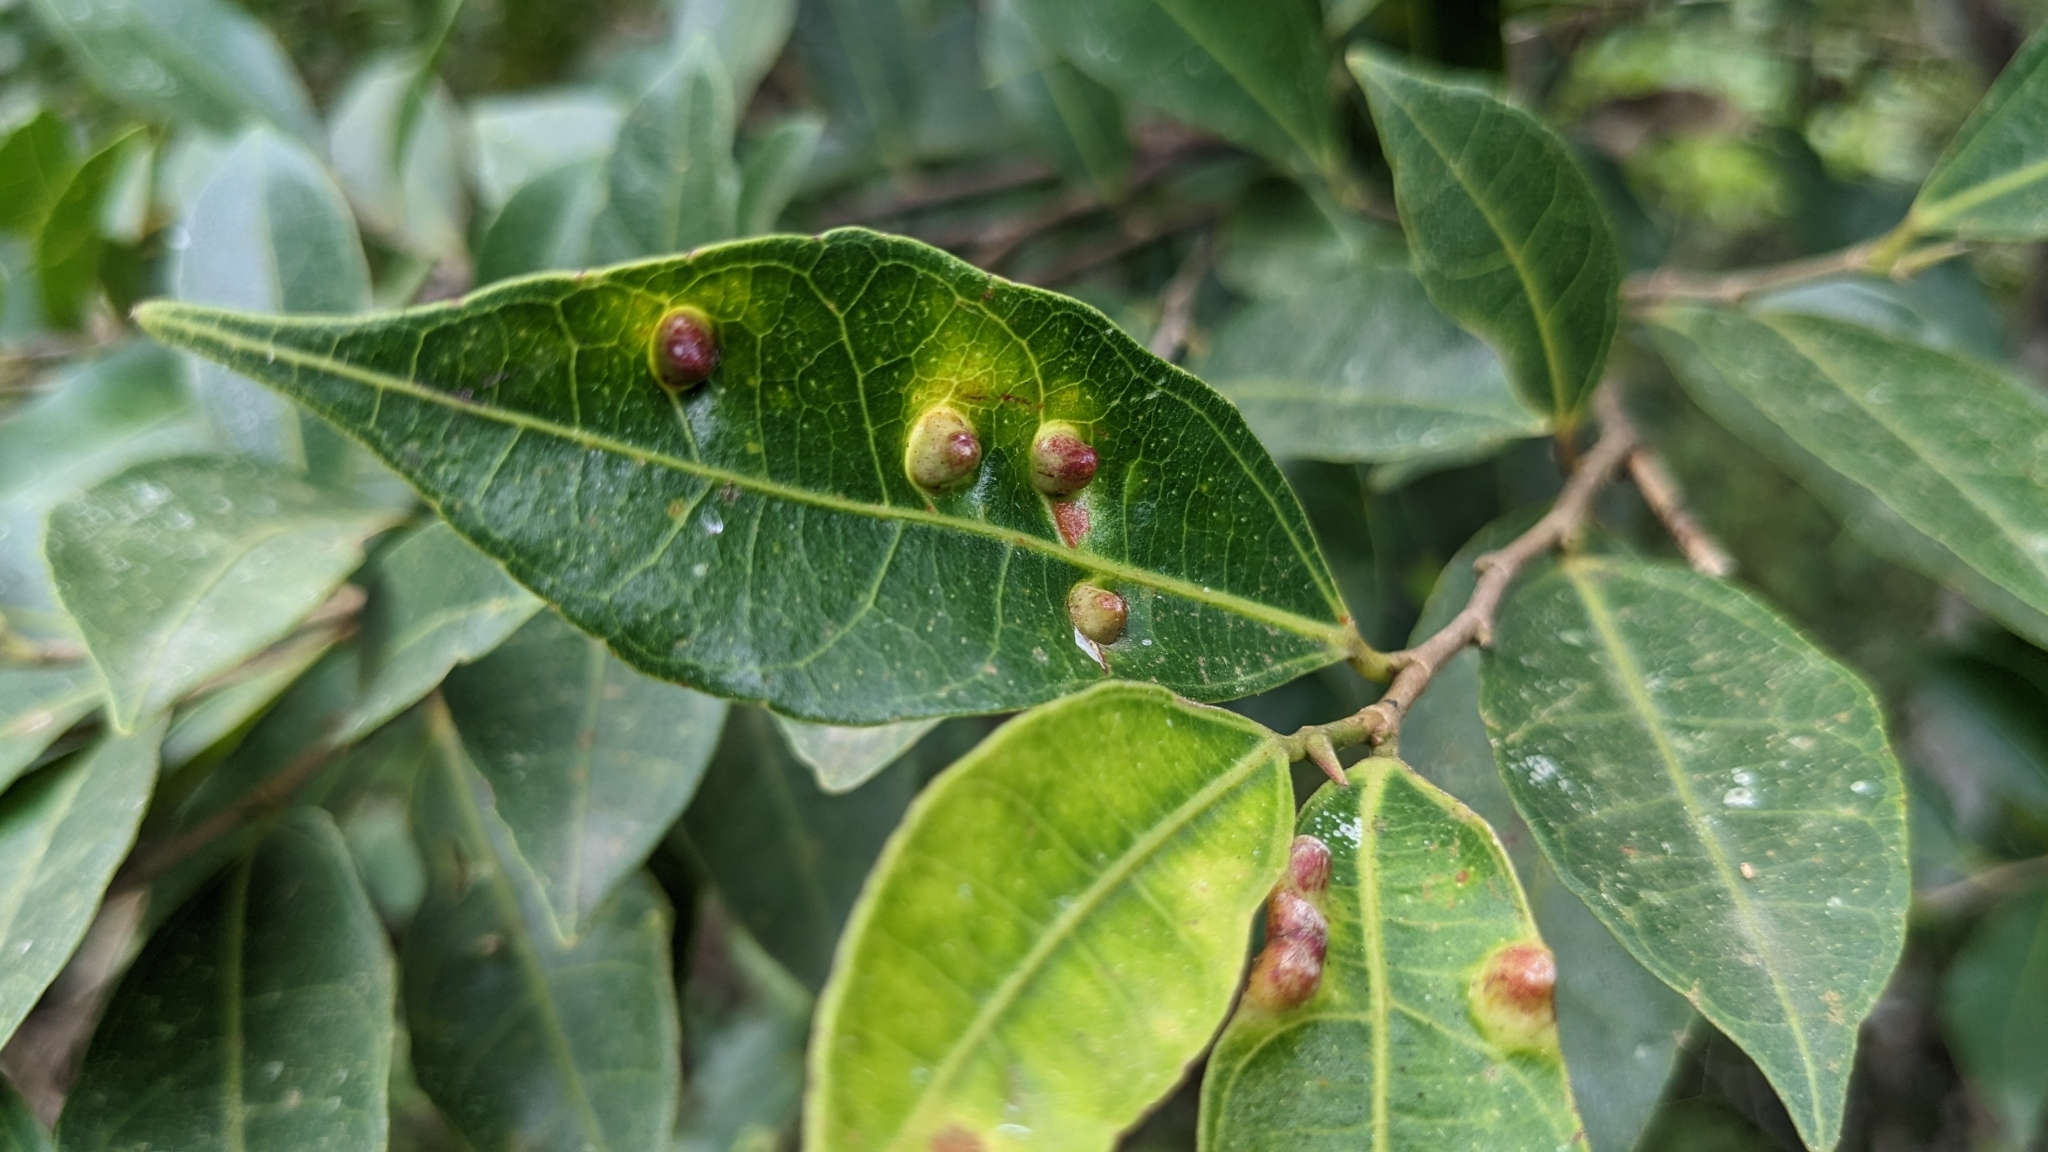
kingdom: Plantae
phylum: Tracheophyta
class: Magnoliopsida
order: Rosales
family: Moraceae
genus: Ficus
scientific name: Ficus ampelos
